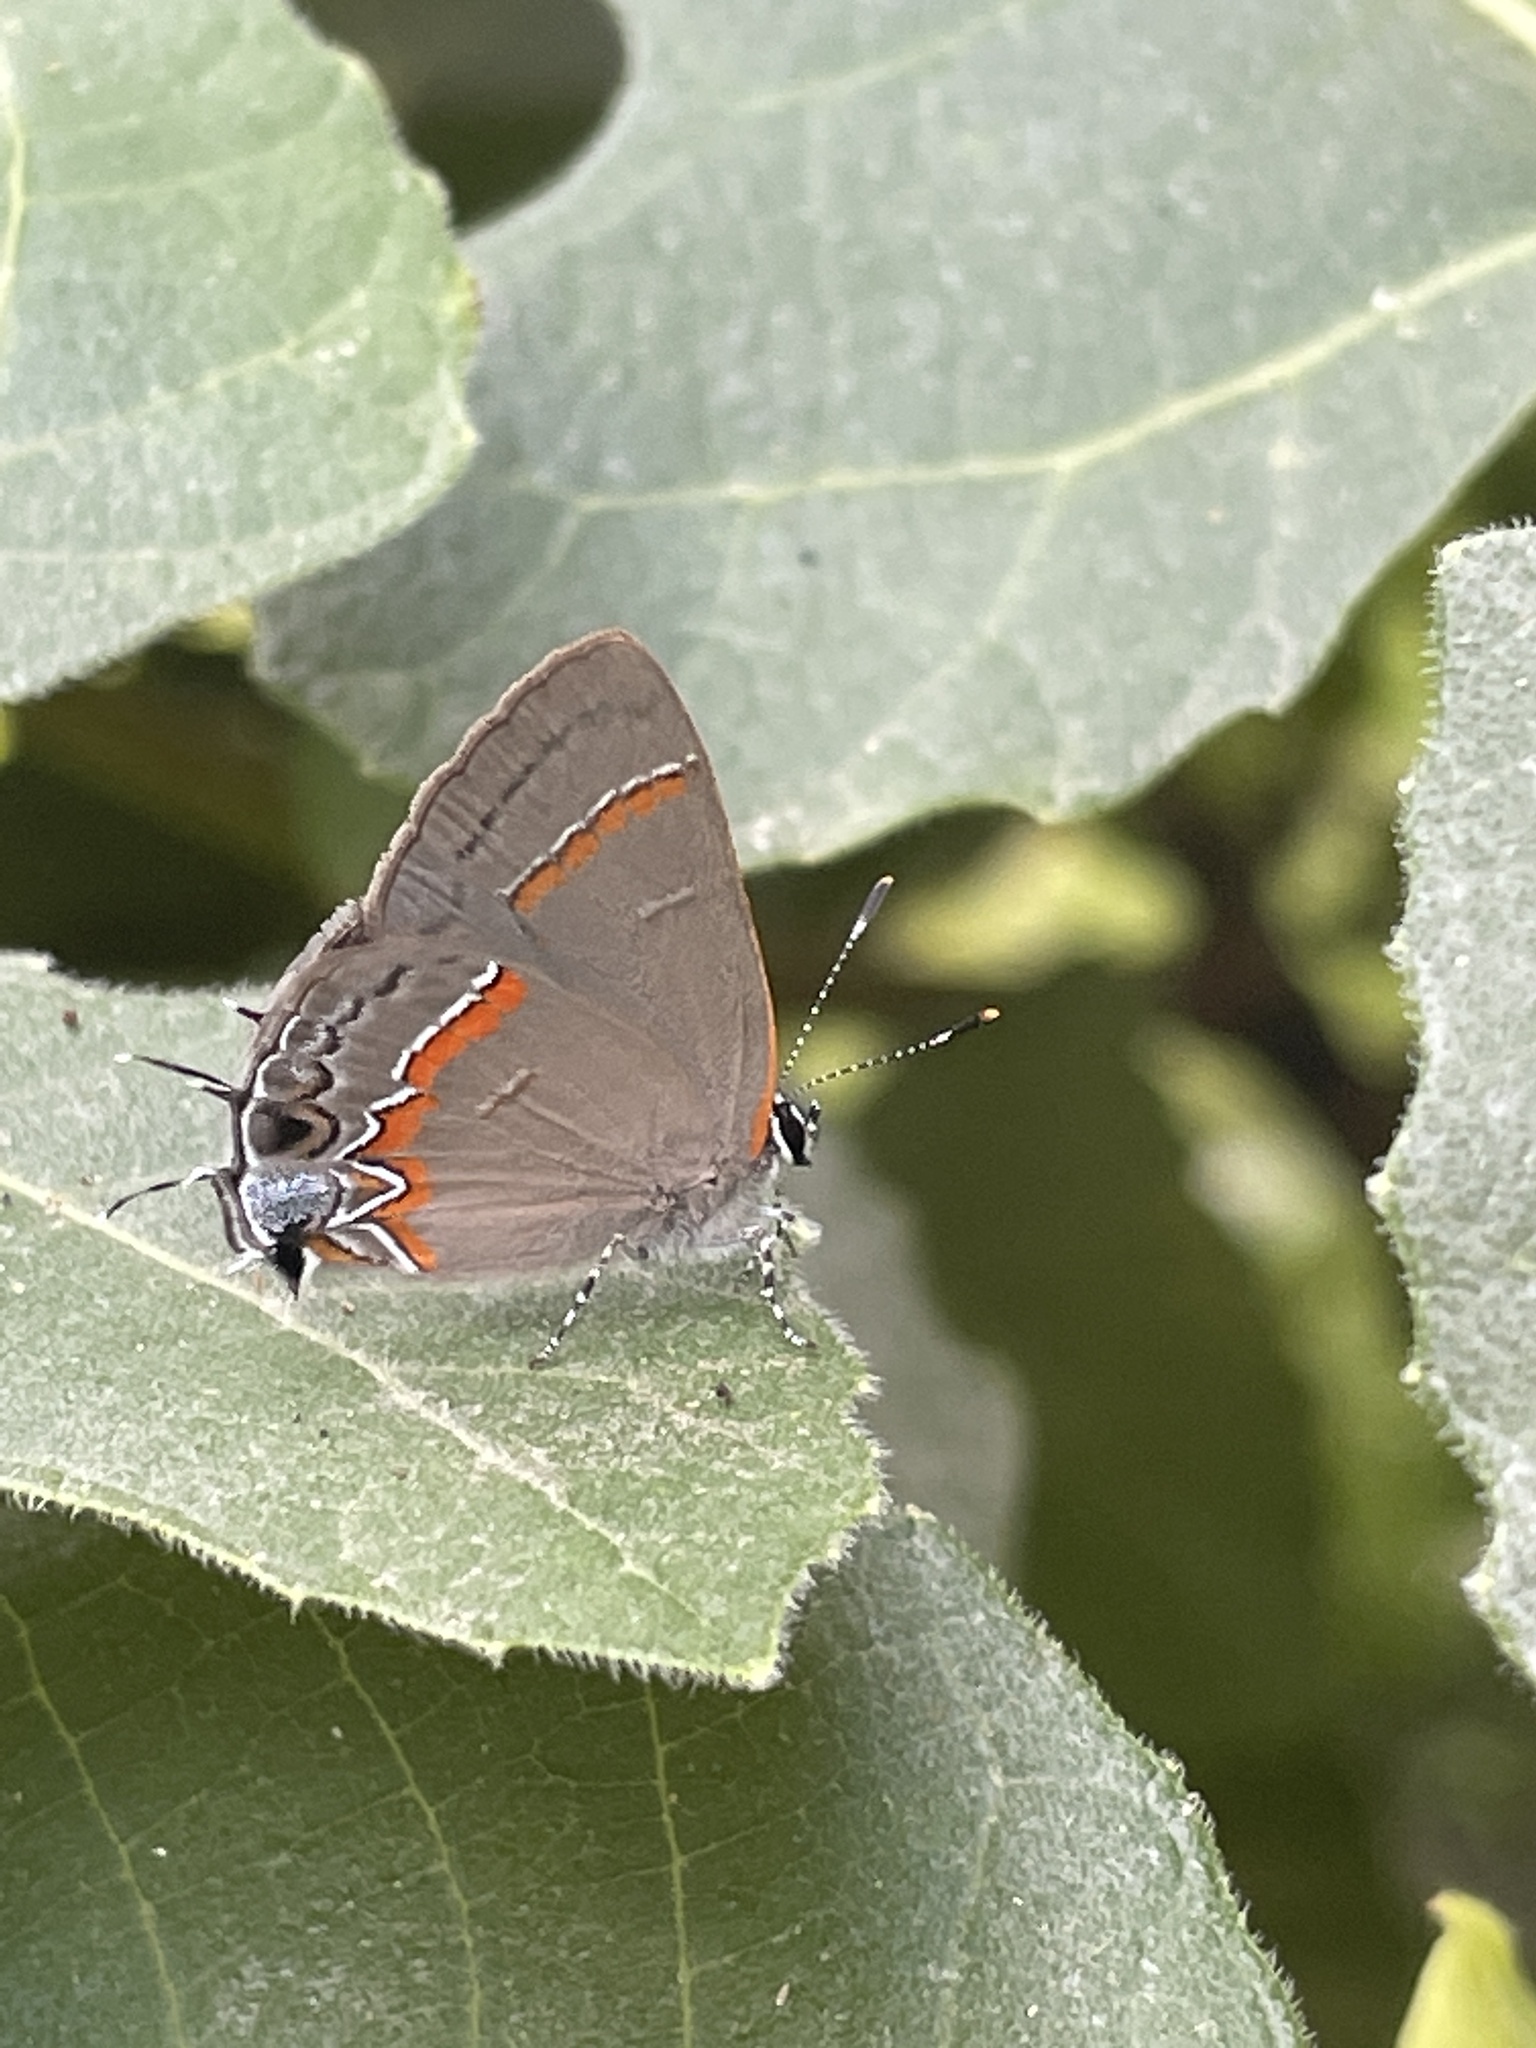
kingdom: Animalia
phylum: Arthropoda
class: Insecta
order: Lepidoptera
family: Lycaenidae
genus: Calycopis
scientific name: Calycopis cecrops
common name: Red-banded hairstreak
